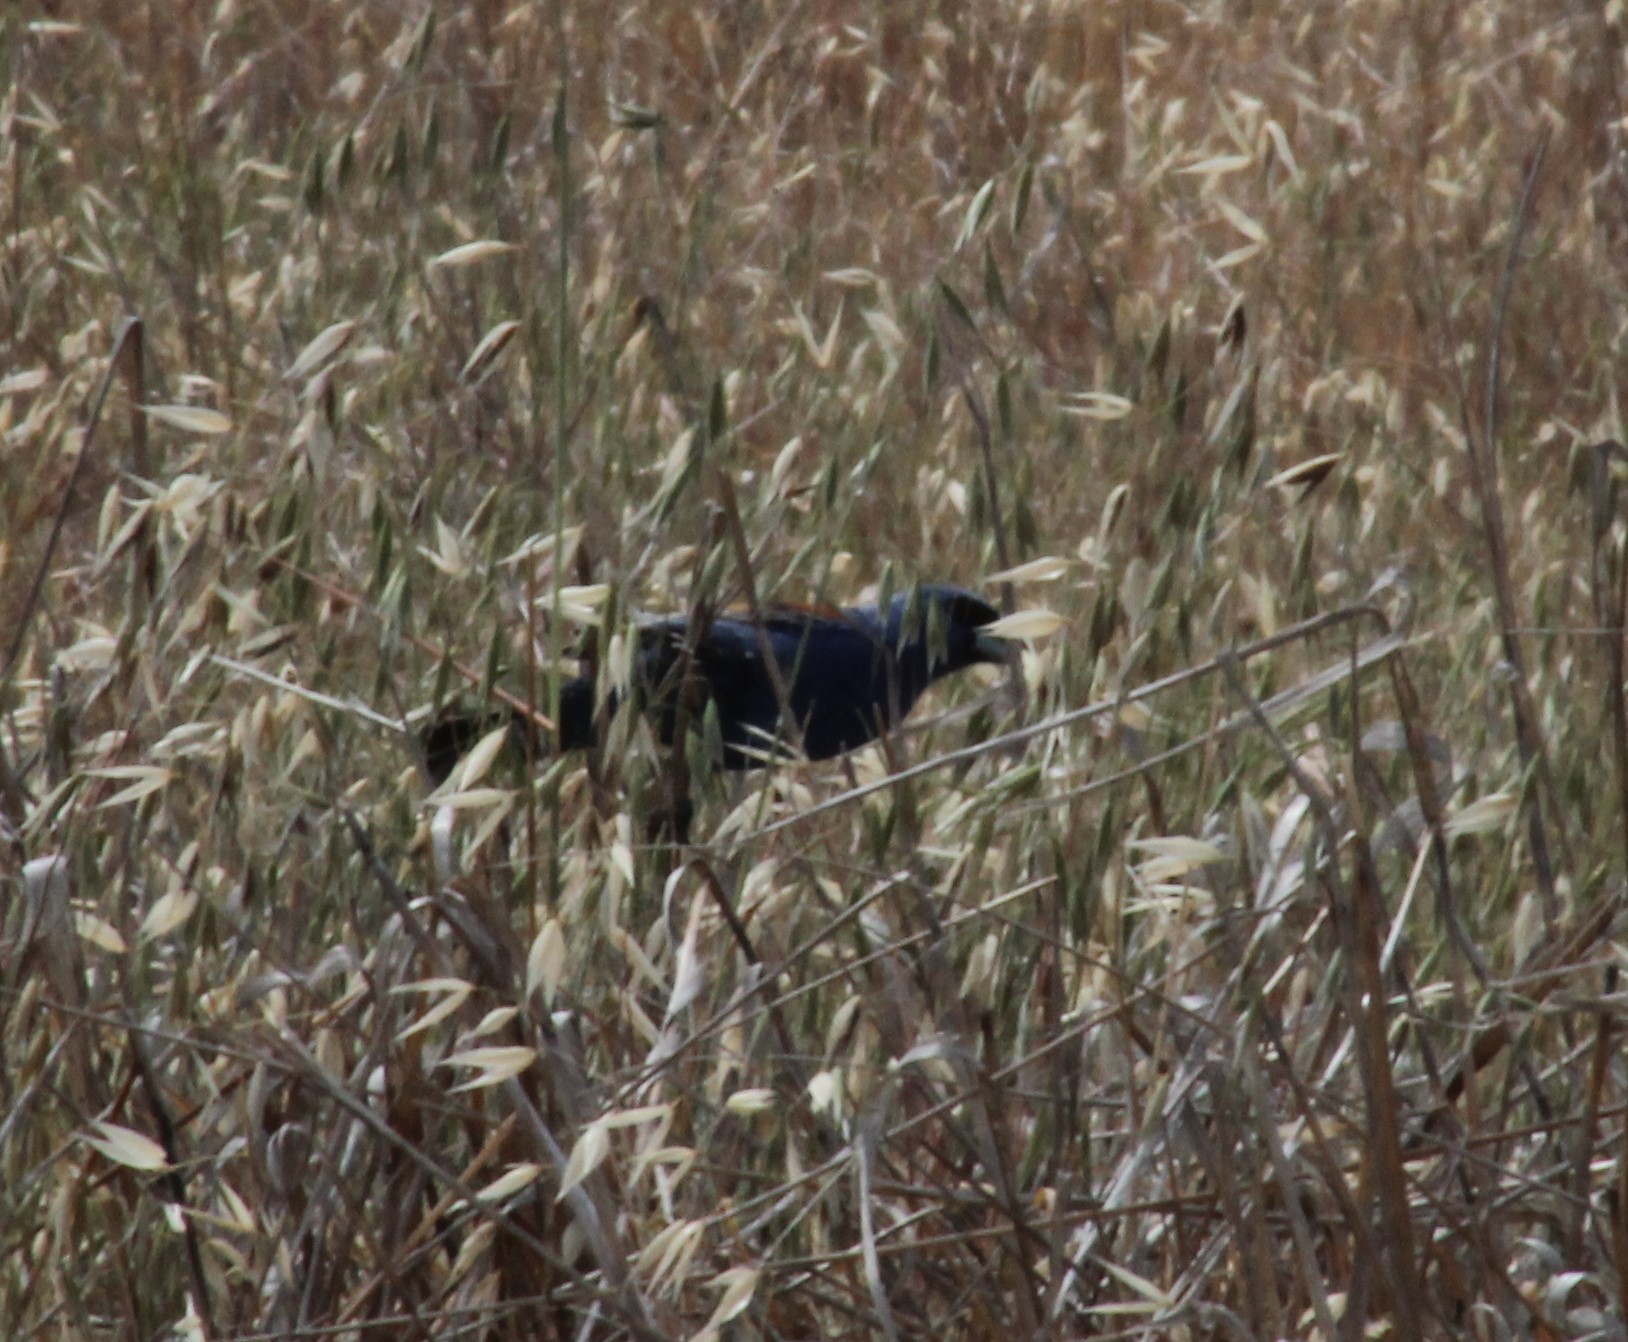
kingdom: Animalia
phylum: Chordata
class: Aves
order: Passeriformes
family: Cardinalidae
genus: Passerina
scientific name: Passerina caerulea
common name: Blue grosbeak
